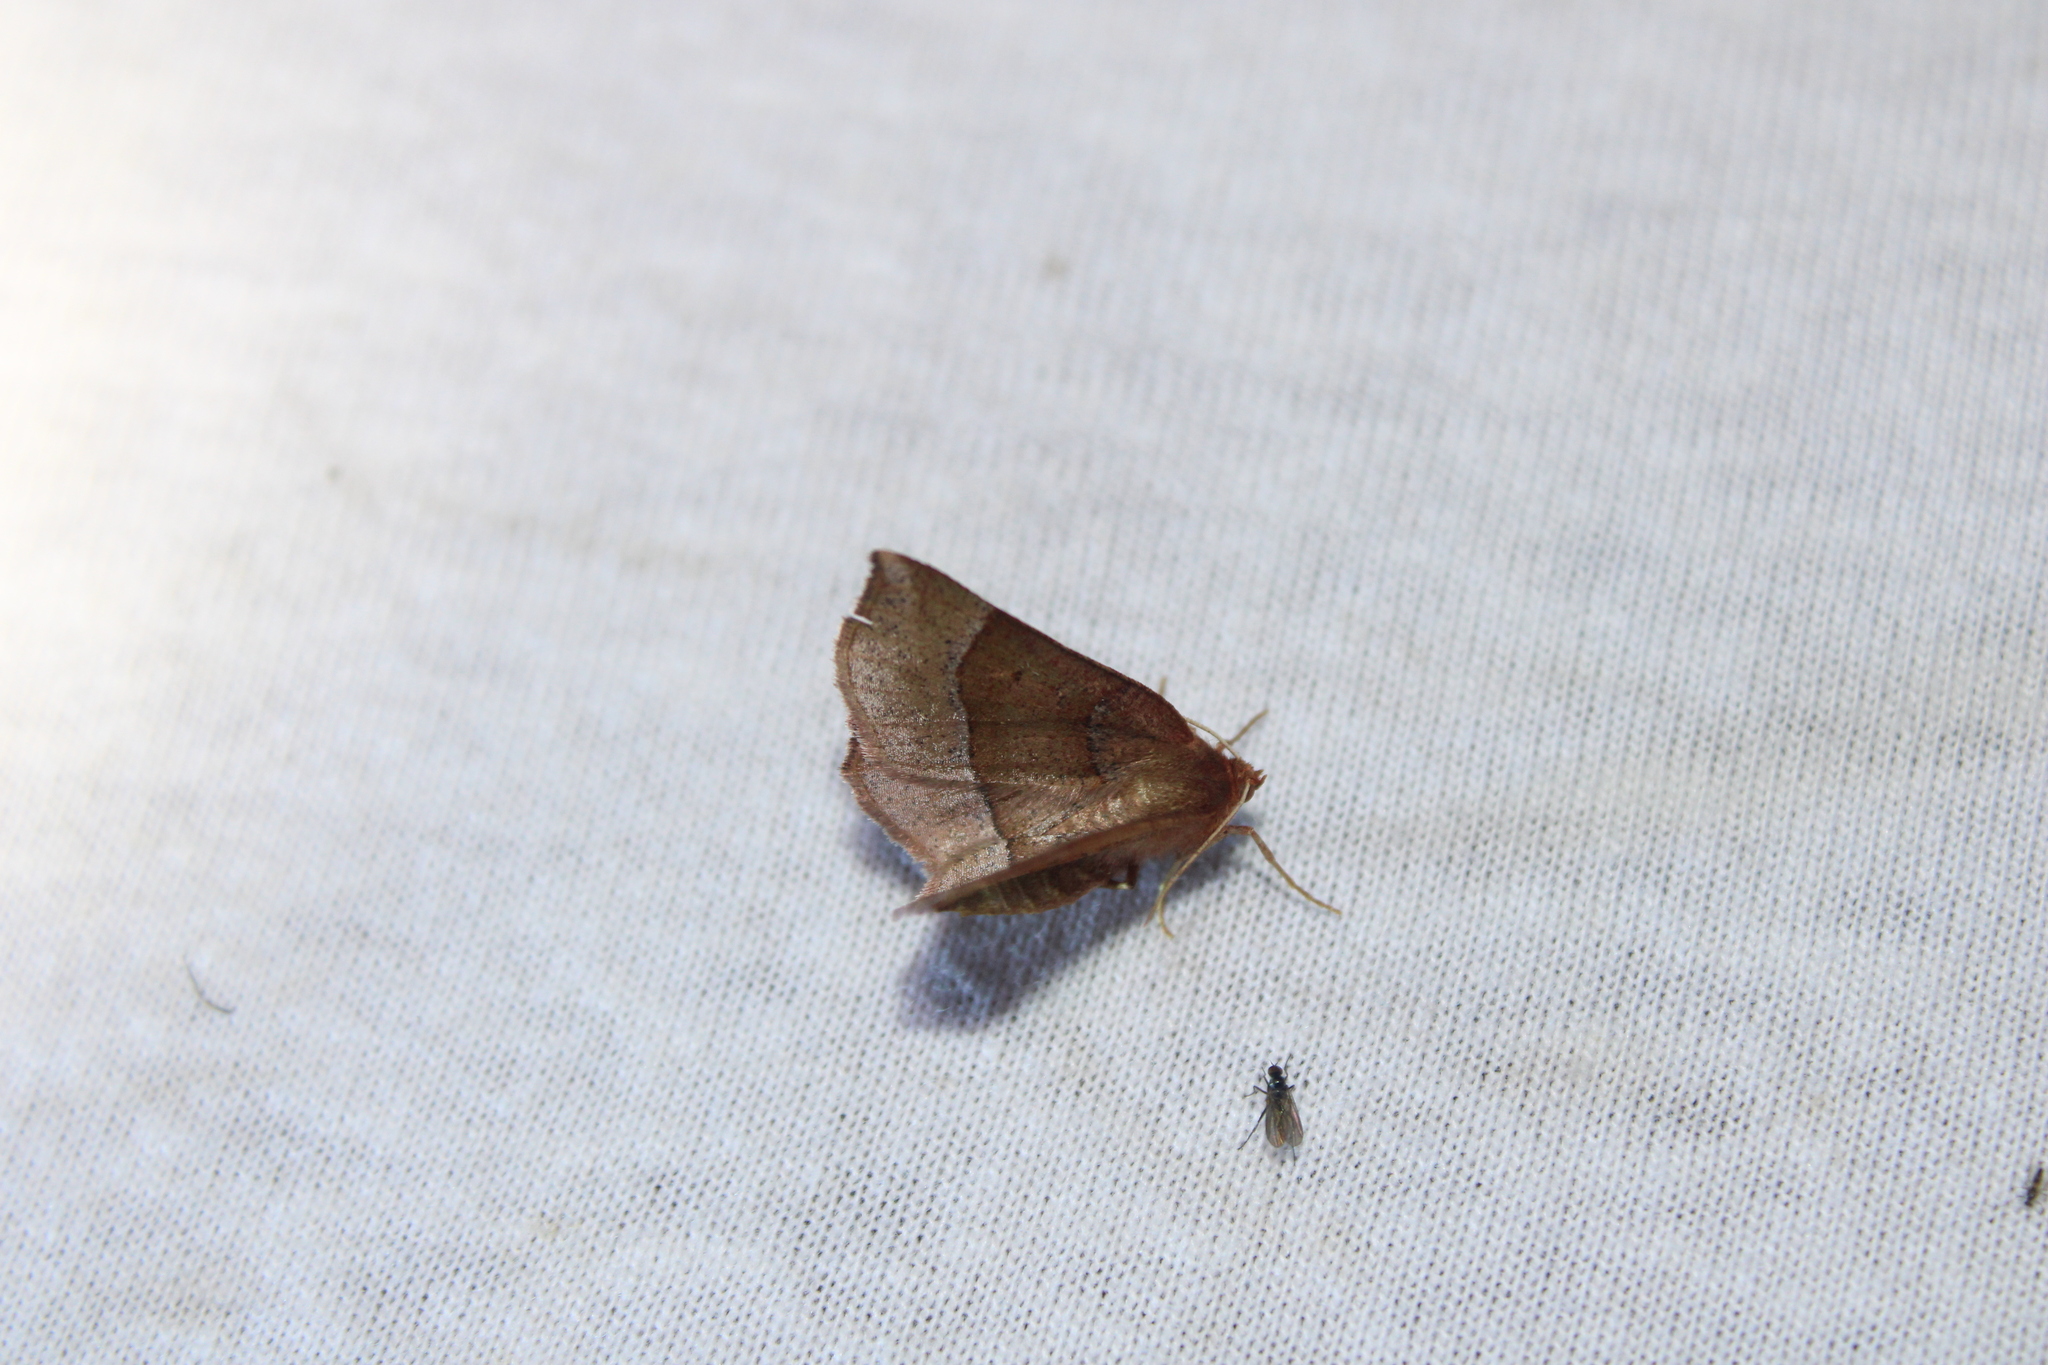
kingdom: Animalia
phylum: Arthropoda
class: Insecta
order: Lepidoptera
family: Geometridae
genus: Metarranthis
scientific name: Metarranthis pilosaria
